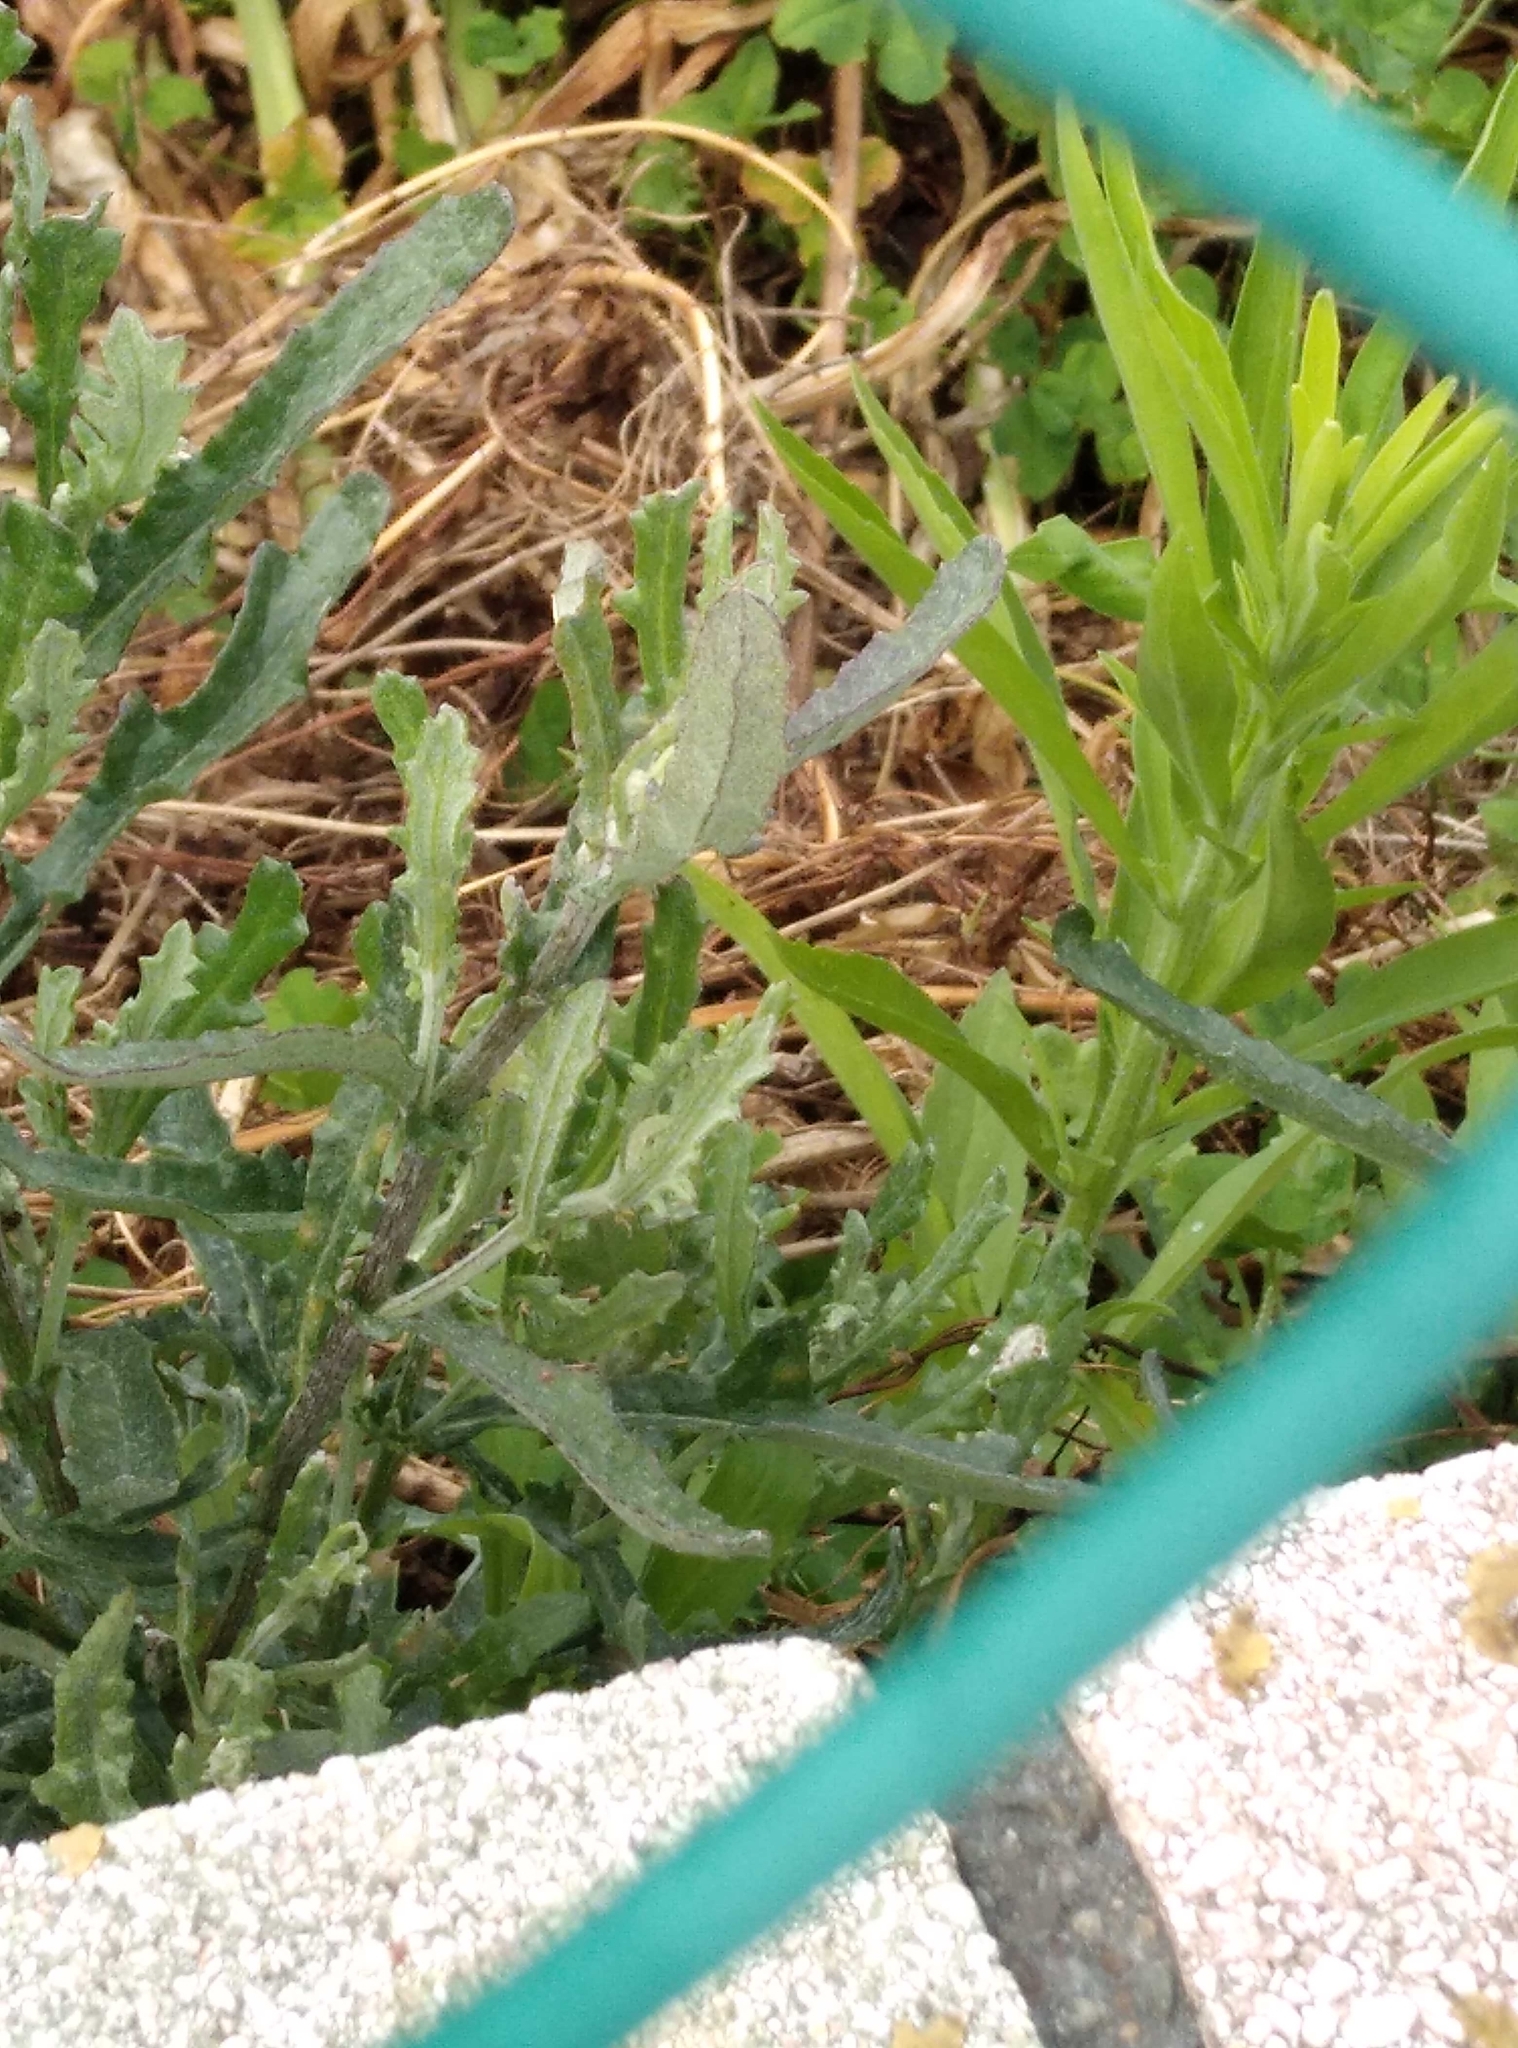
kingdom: Plantae
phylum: Tracheophyta
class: Magnoliopsida
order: Asterales
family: Asteraceae
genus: Senecio
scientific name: Senecio glomeratus
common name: Cutleaf burnweed
